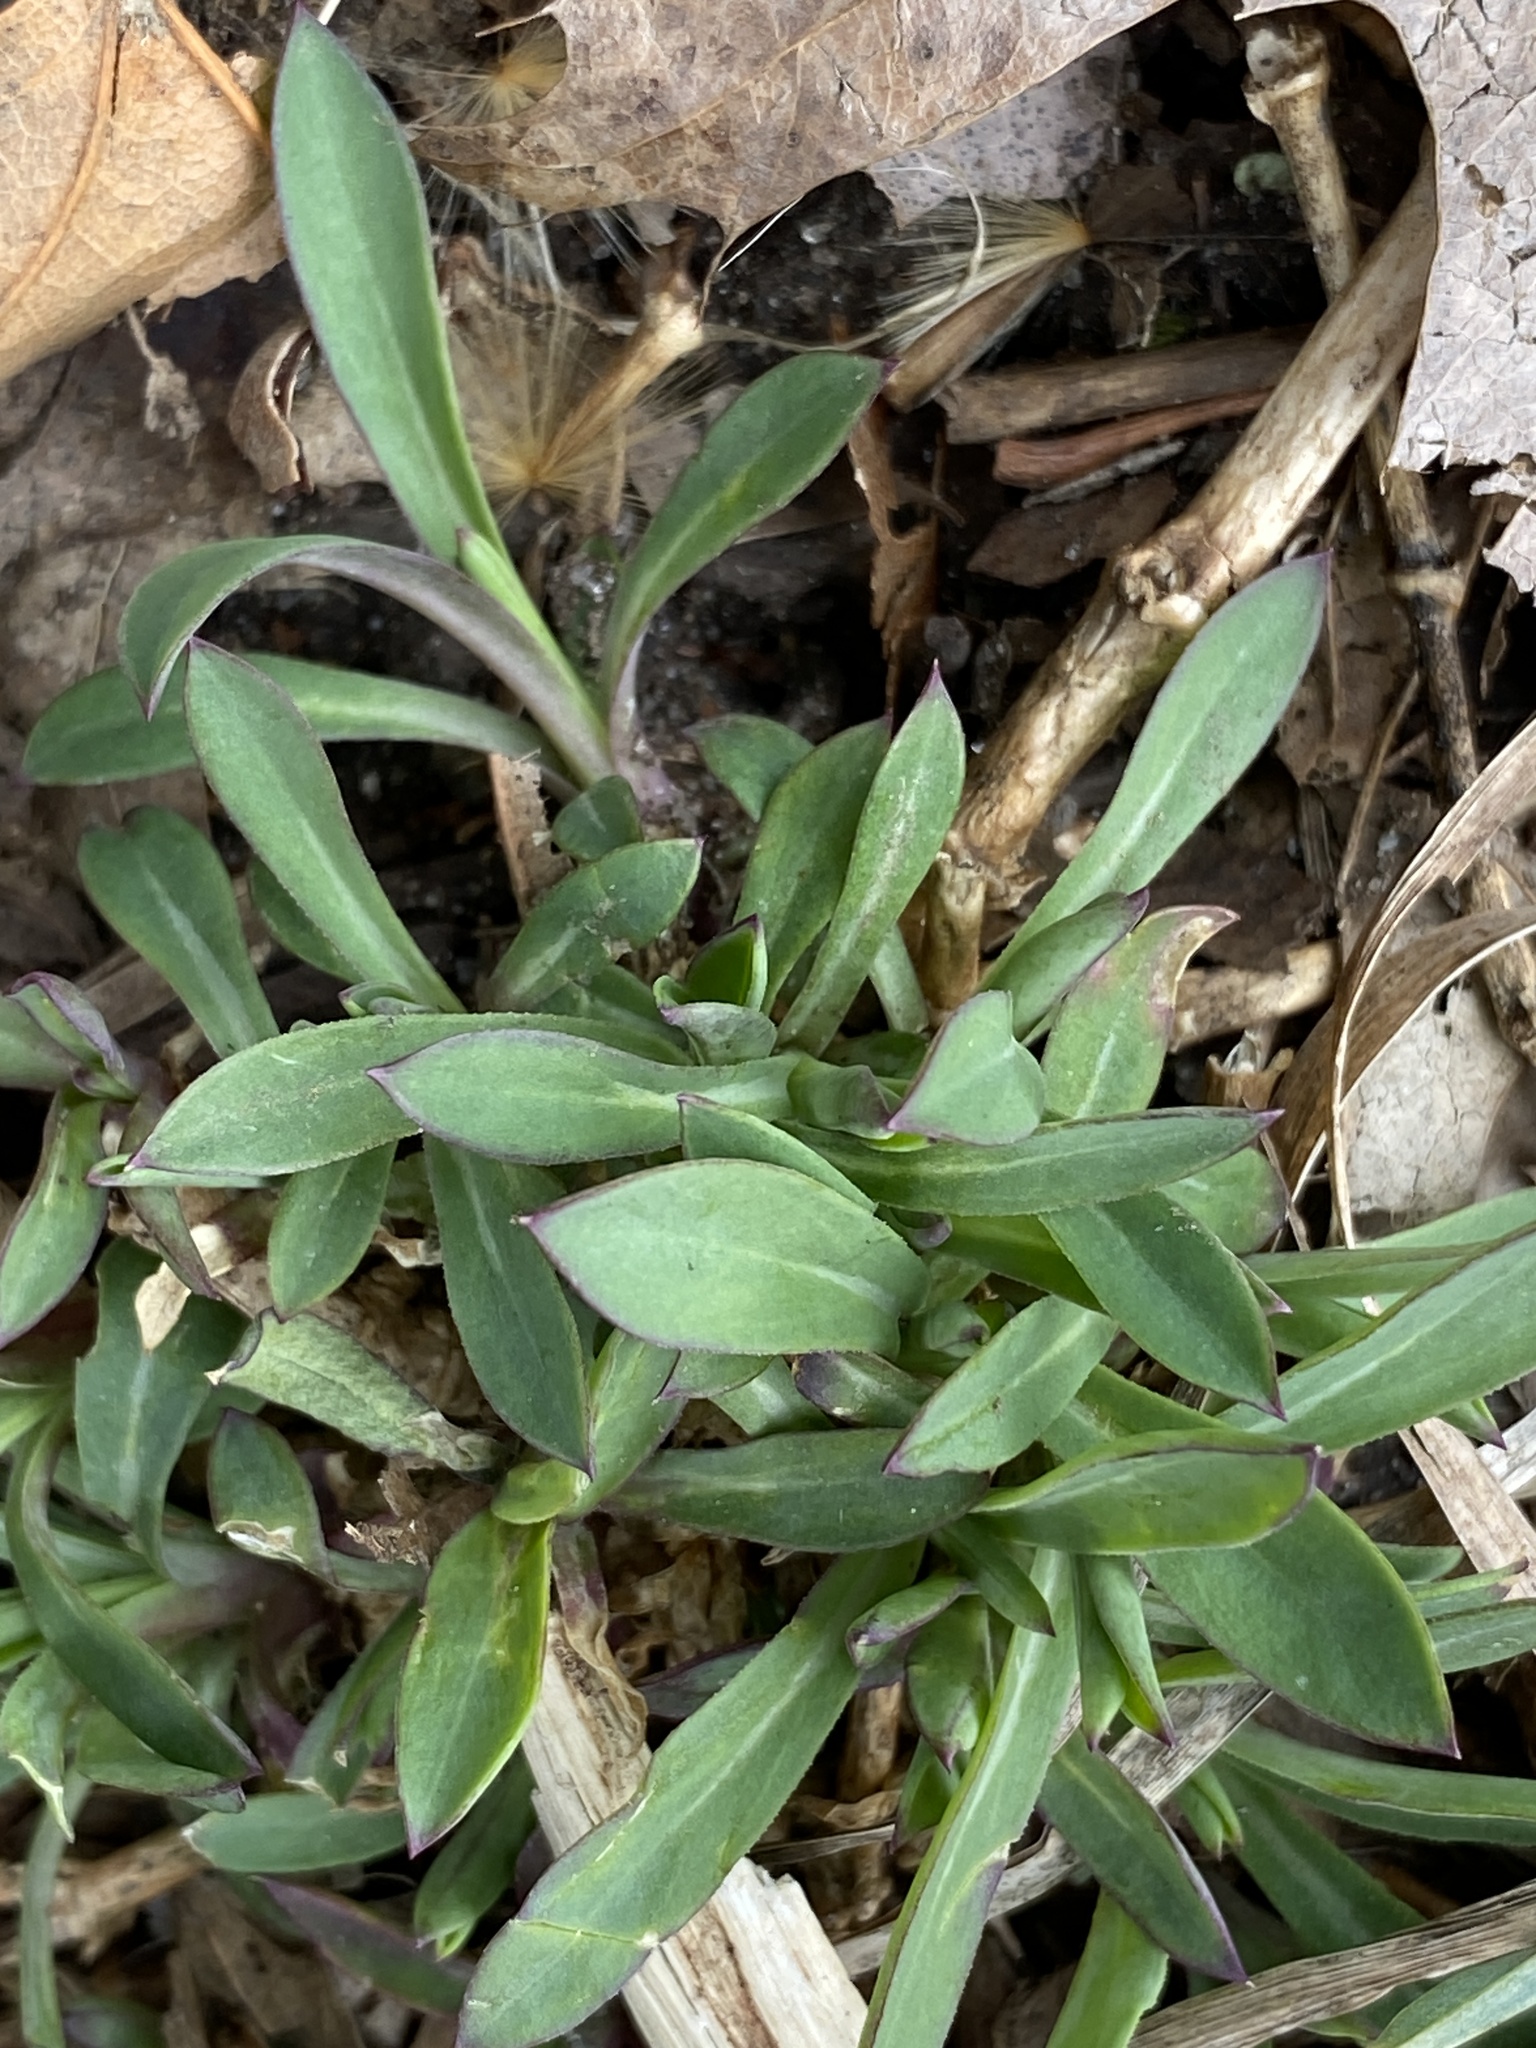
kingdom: Plantae
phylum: Tracheophyta
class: Magnoliopsida
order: Caryophyllales
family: Caryophyllaceae
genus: Silene
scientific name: Silene vulgaris
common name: Bladder campion
